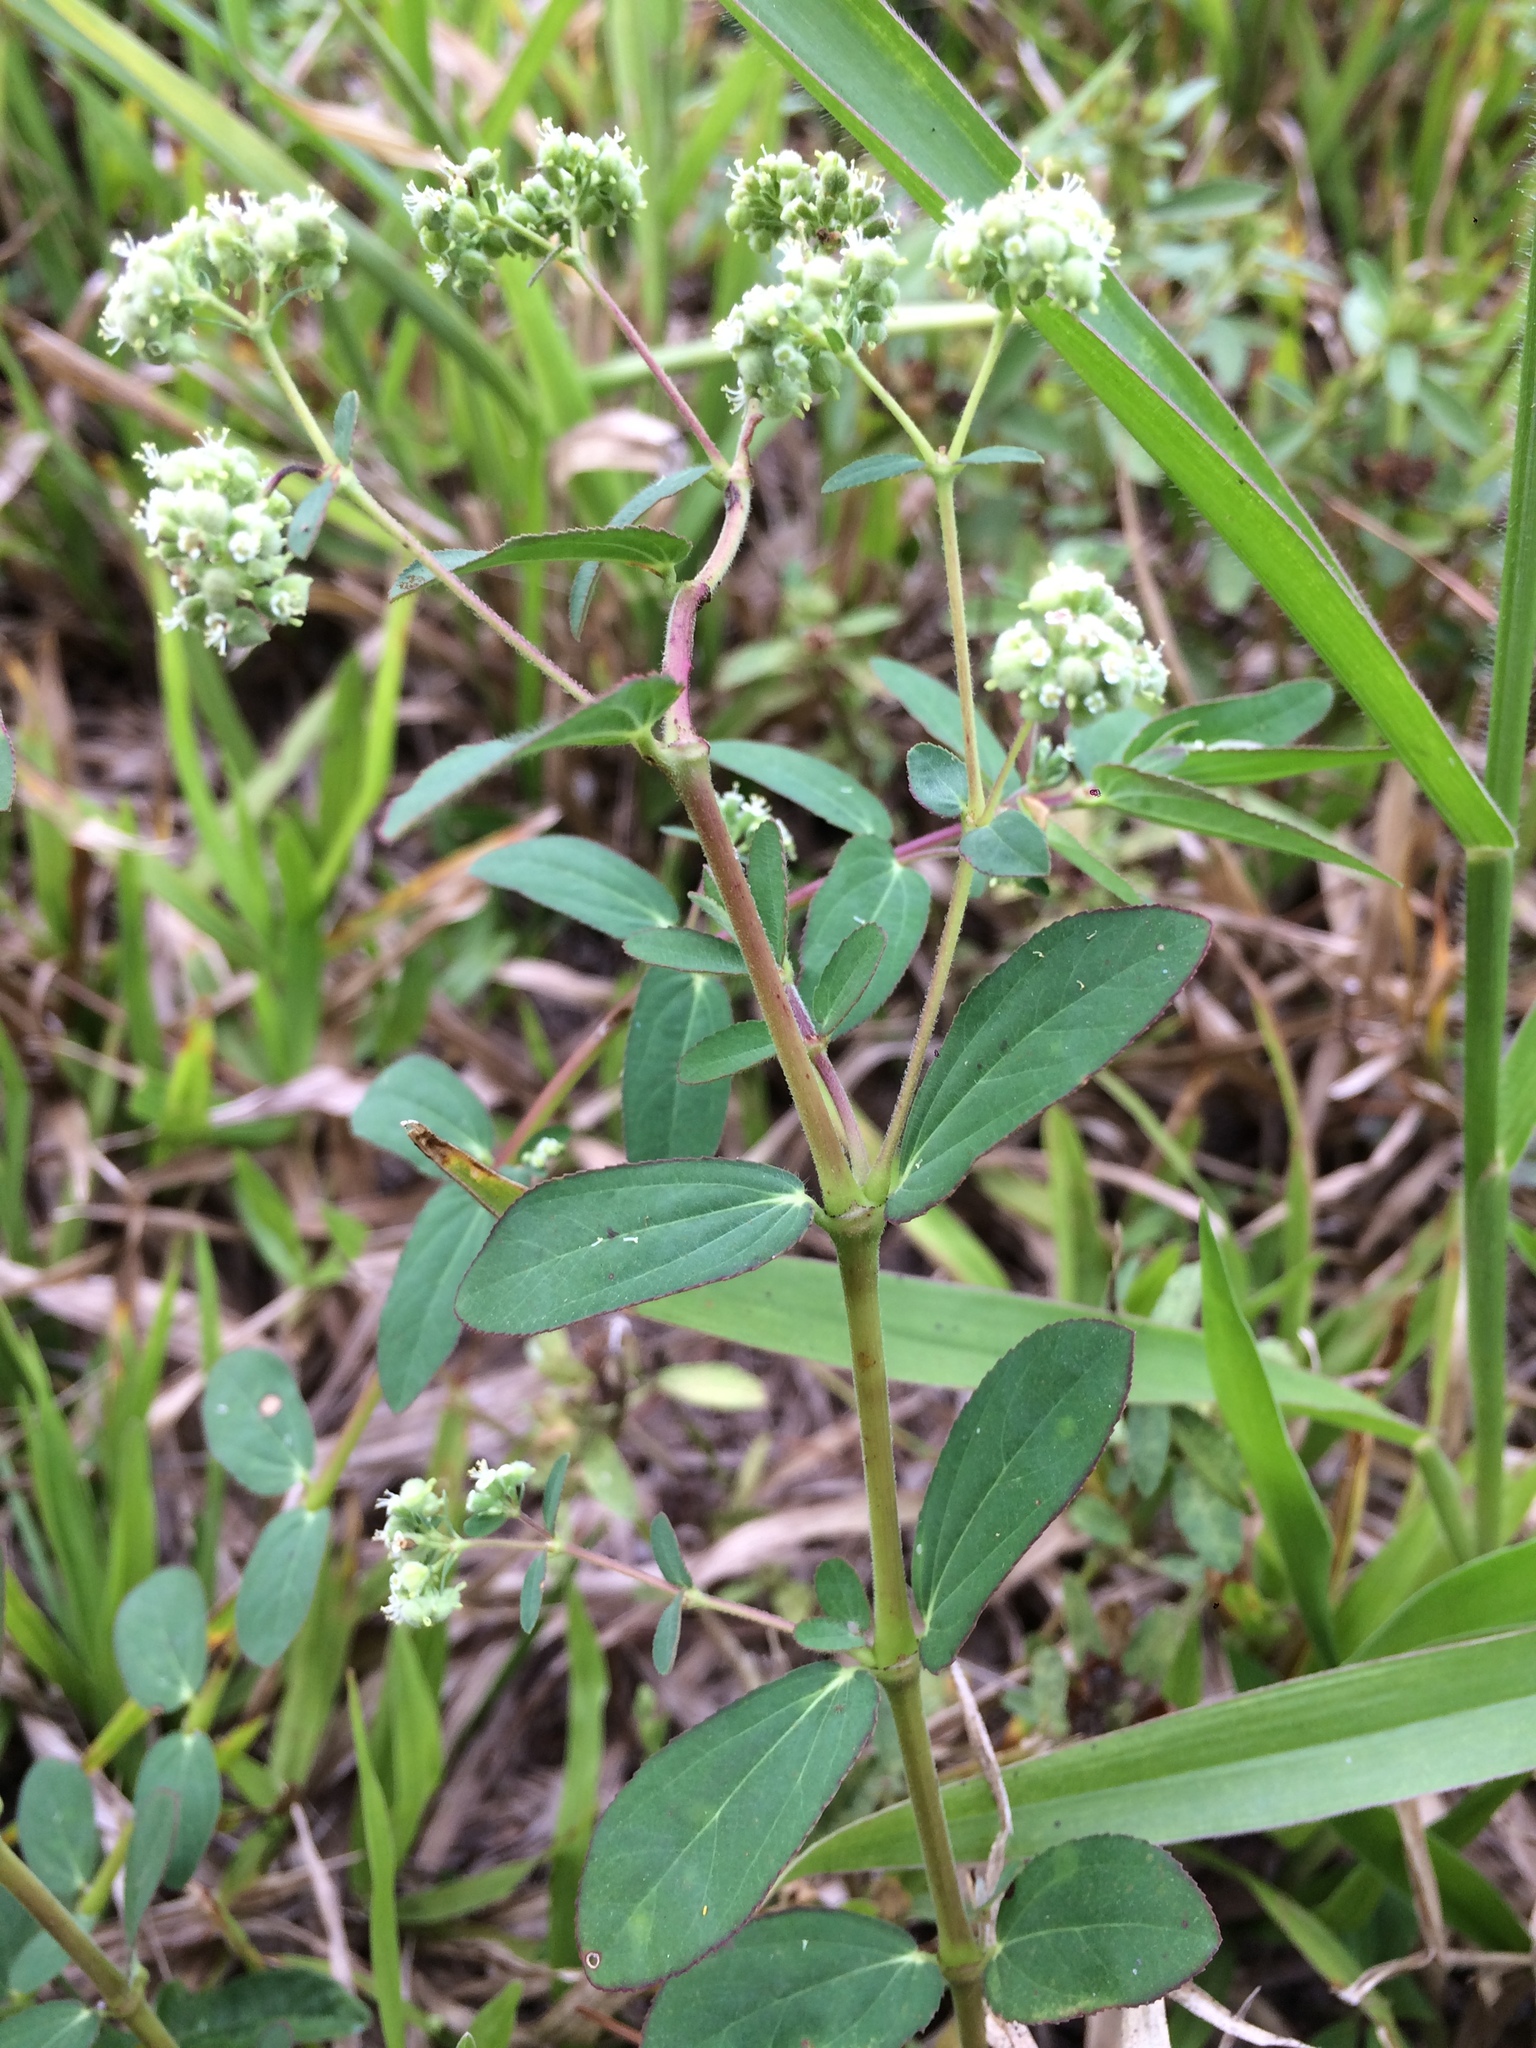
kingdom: Plantae
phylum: Tracheophyta
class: Magnoliopsida
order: Malpighiales
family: Euphorbiaceae
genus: Euphorbia
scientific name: Euphorbia lasiocarpa
